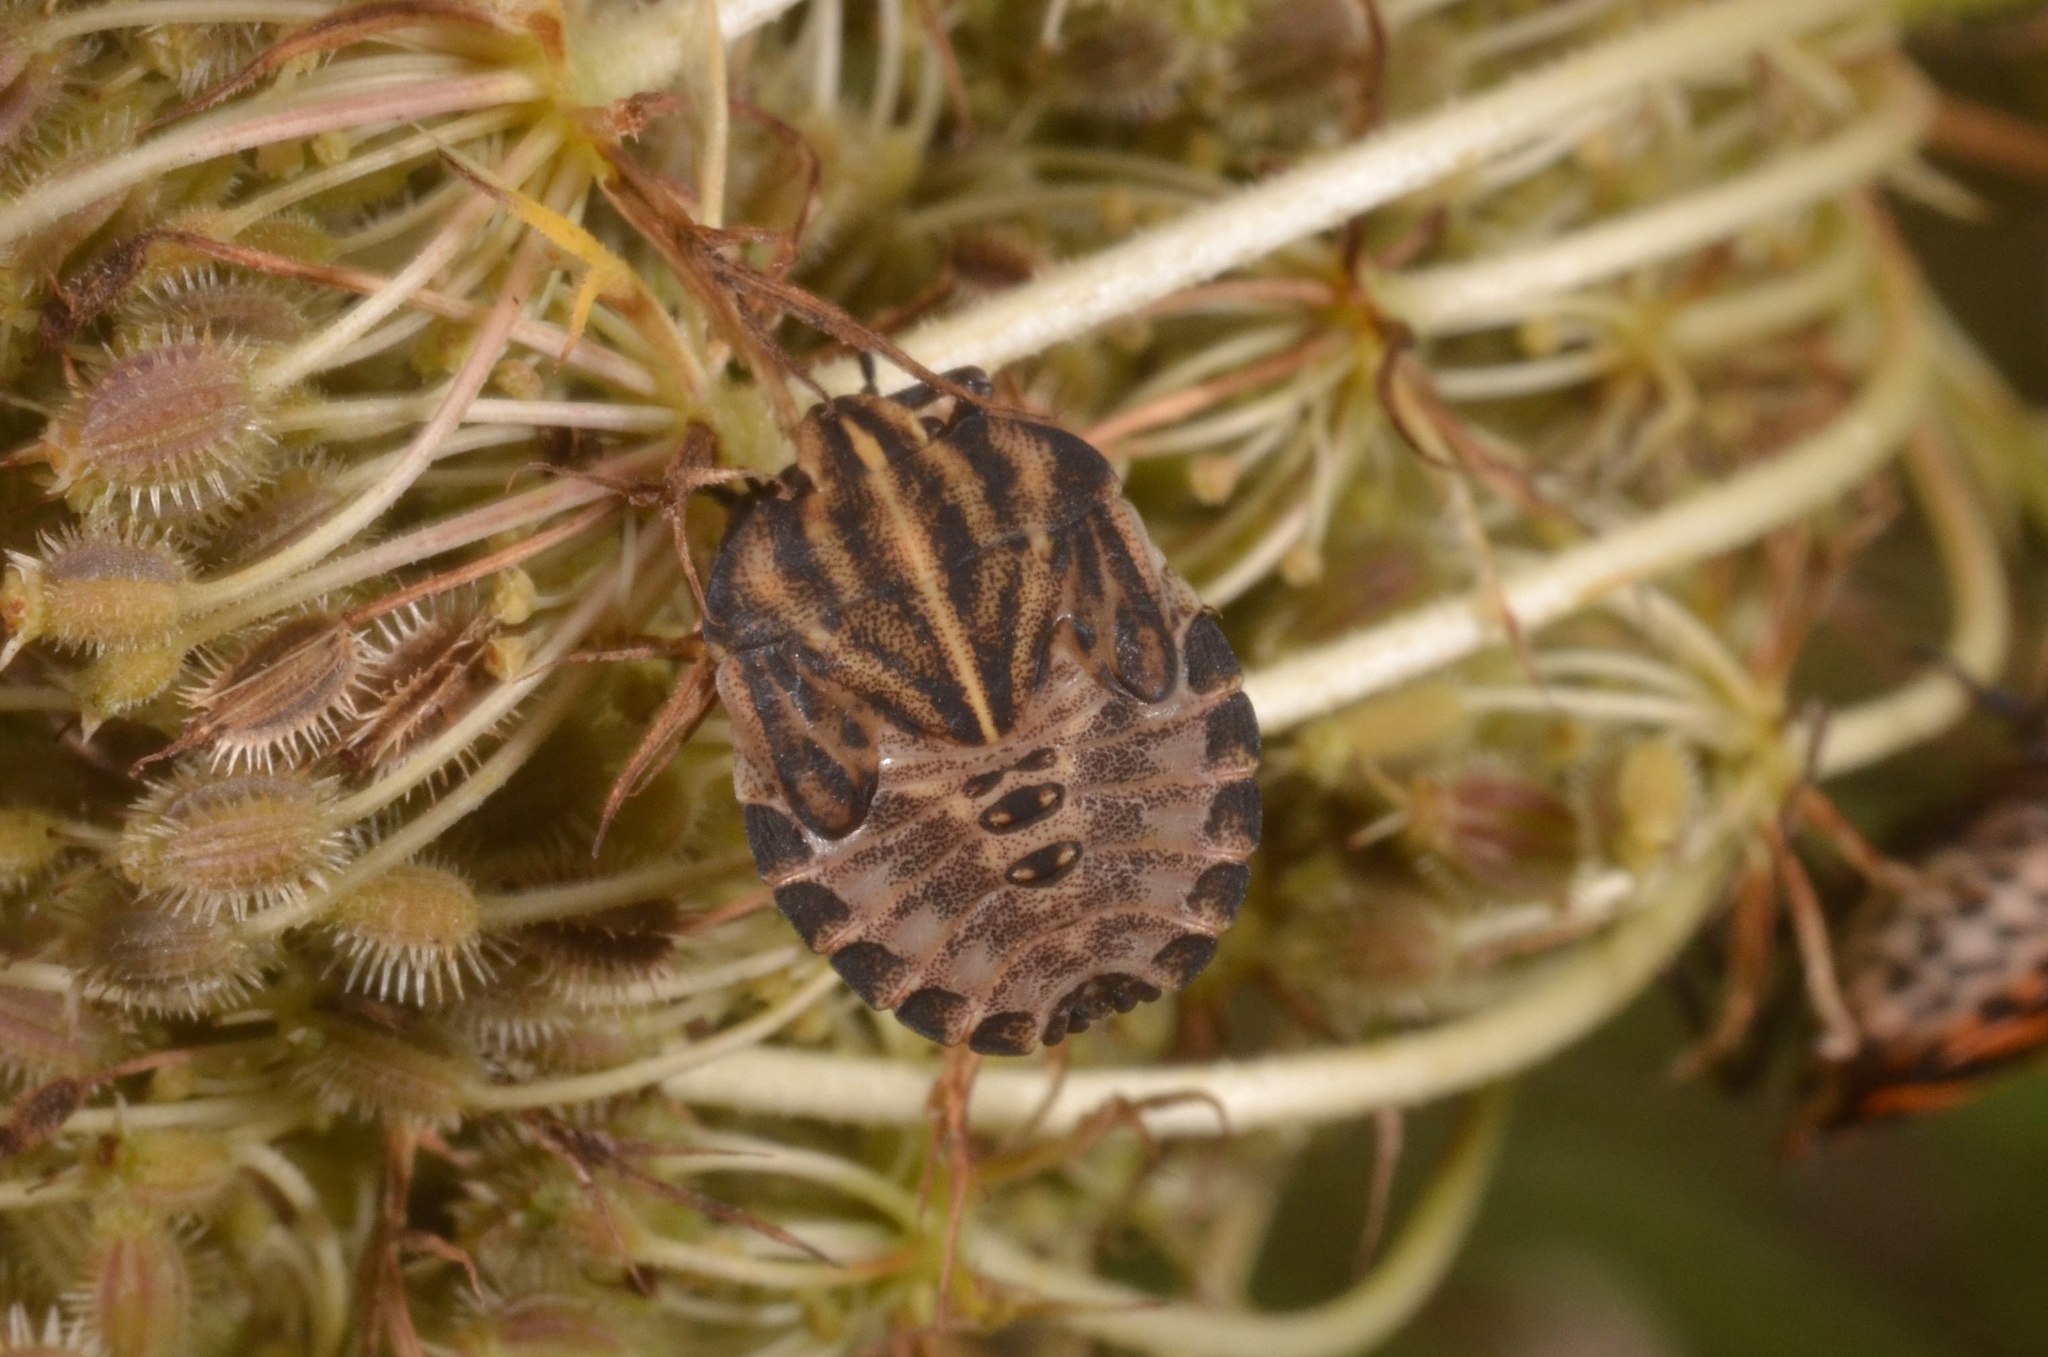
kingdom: Animalia
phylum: Arthropoda
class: Insecta
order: Hemiptera
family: Pentatomidae
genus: Graphosoma
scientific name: Graphosoma italicum
